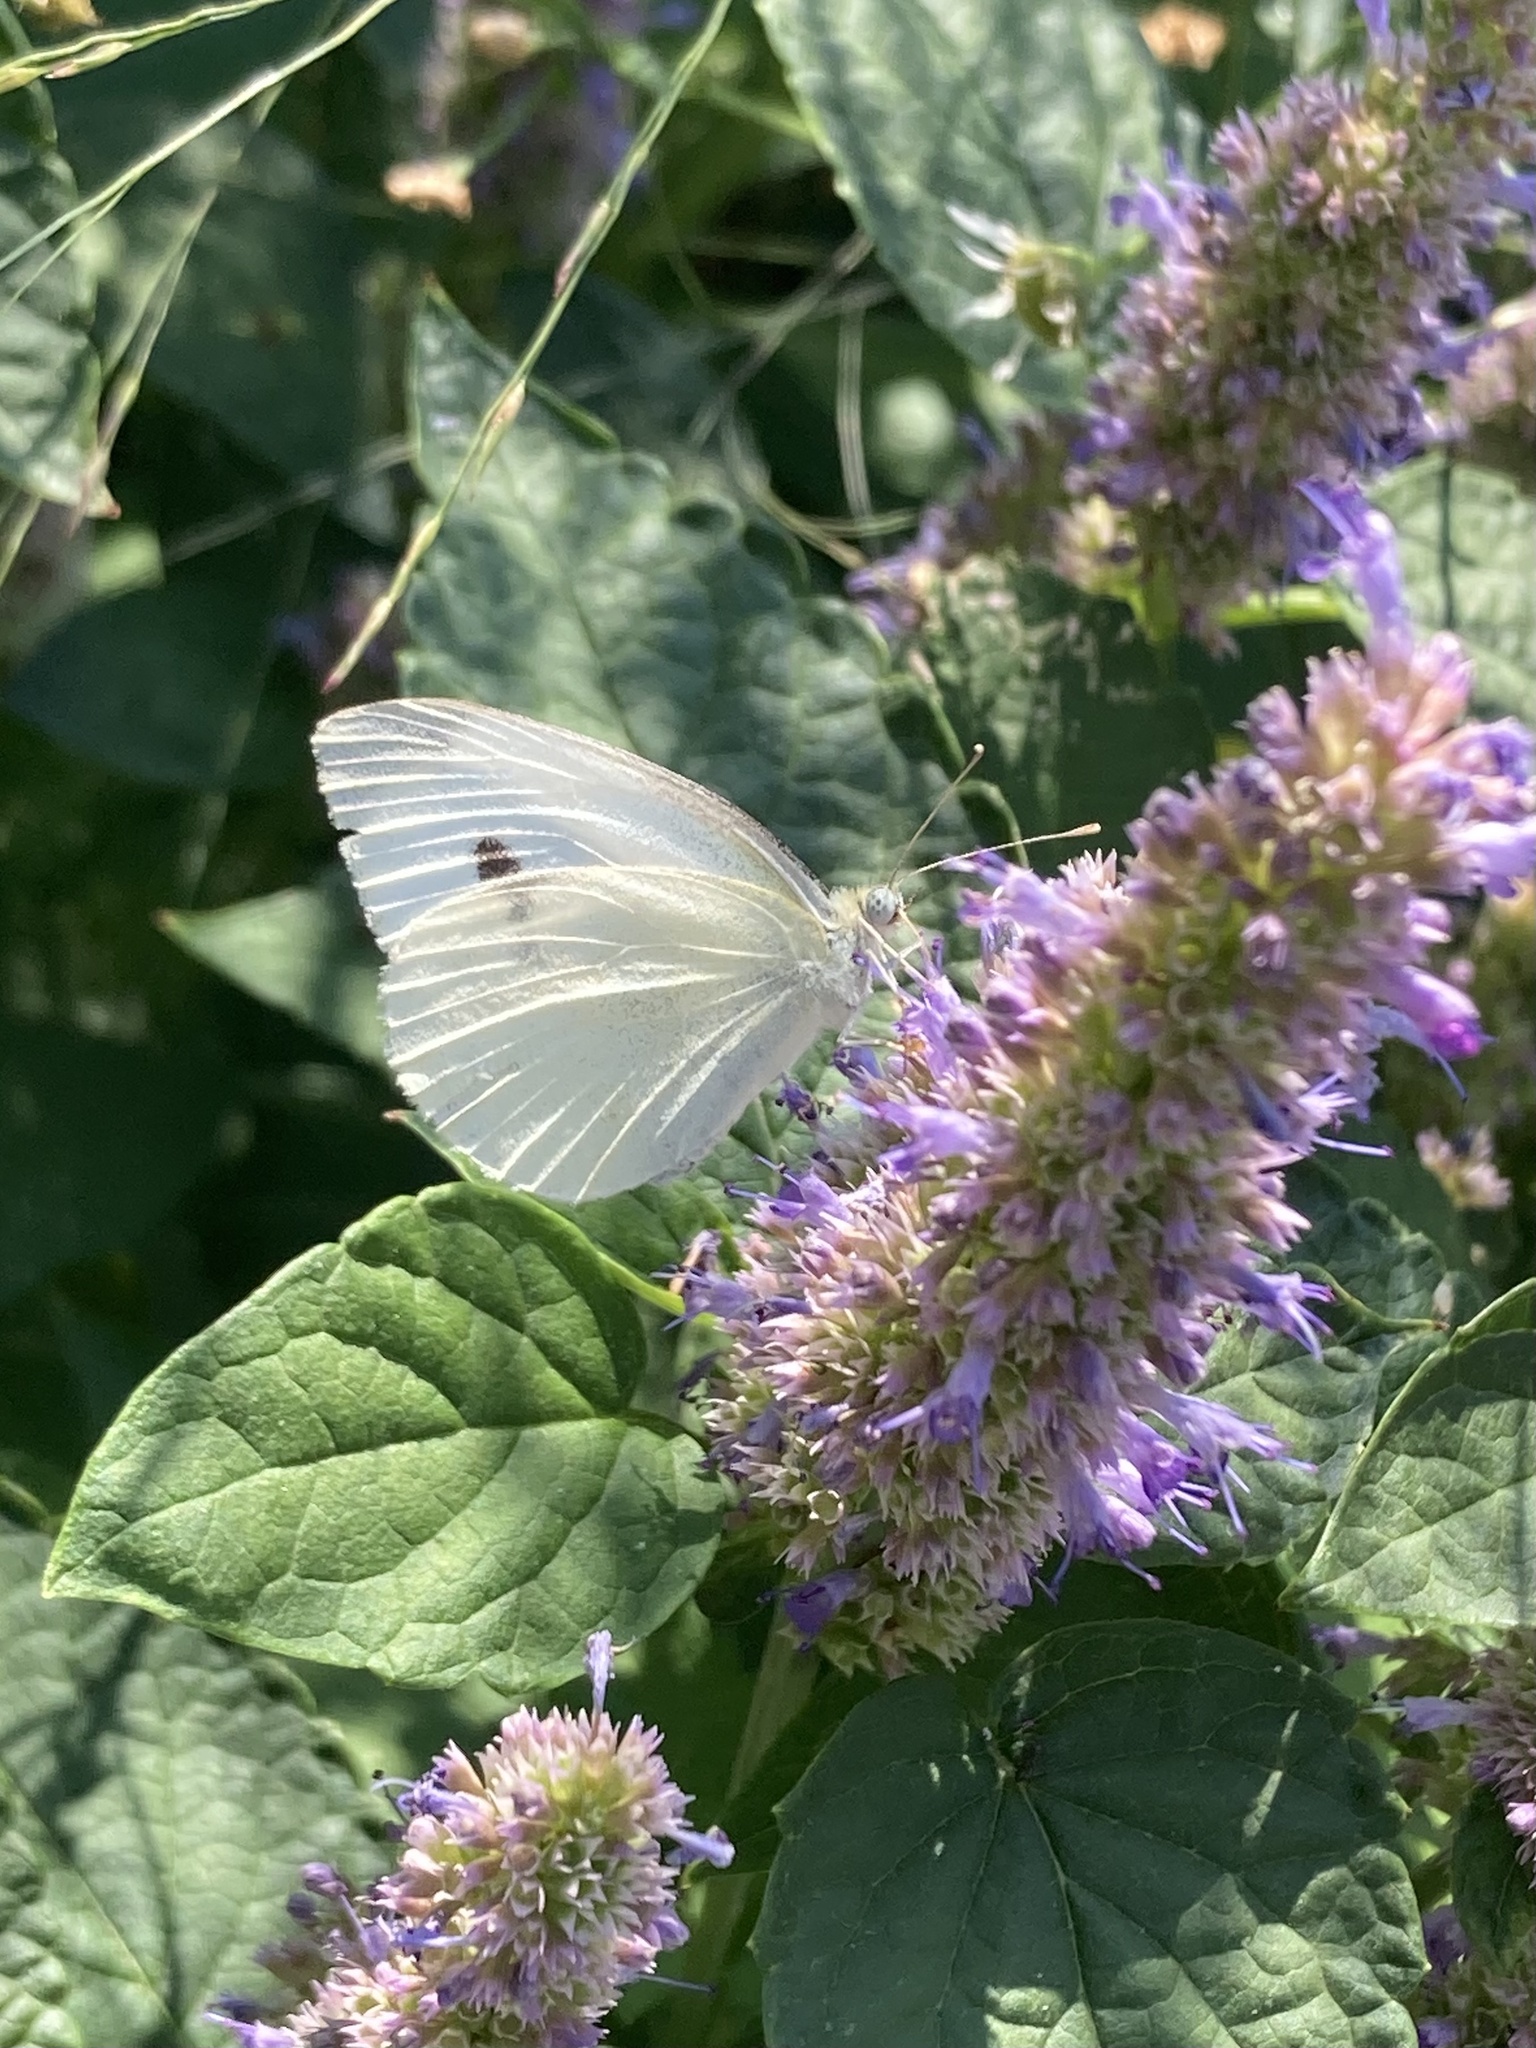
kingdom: Animalia
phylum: Arthropoda
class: Insecta
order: Lepidoptera
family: Pieridae
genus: Pieris
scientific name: Pieris rapae
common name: Small white
